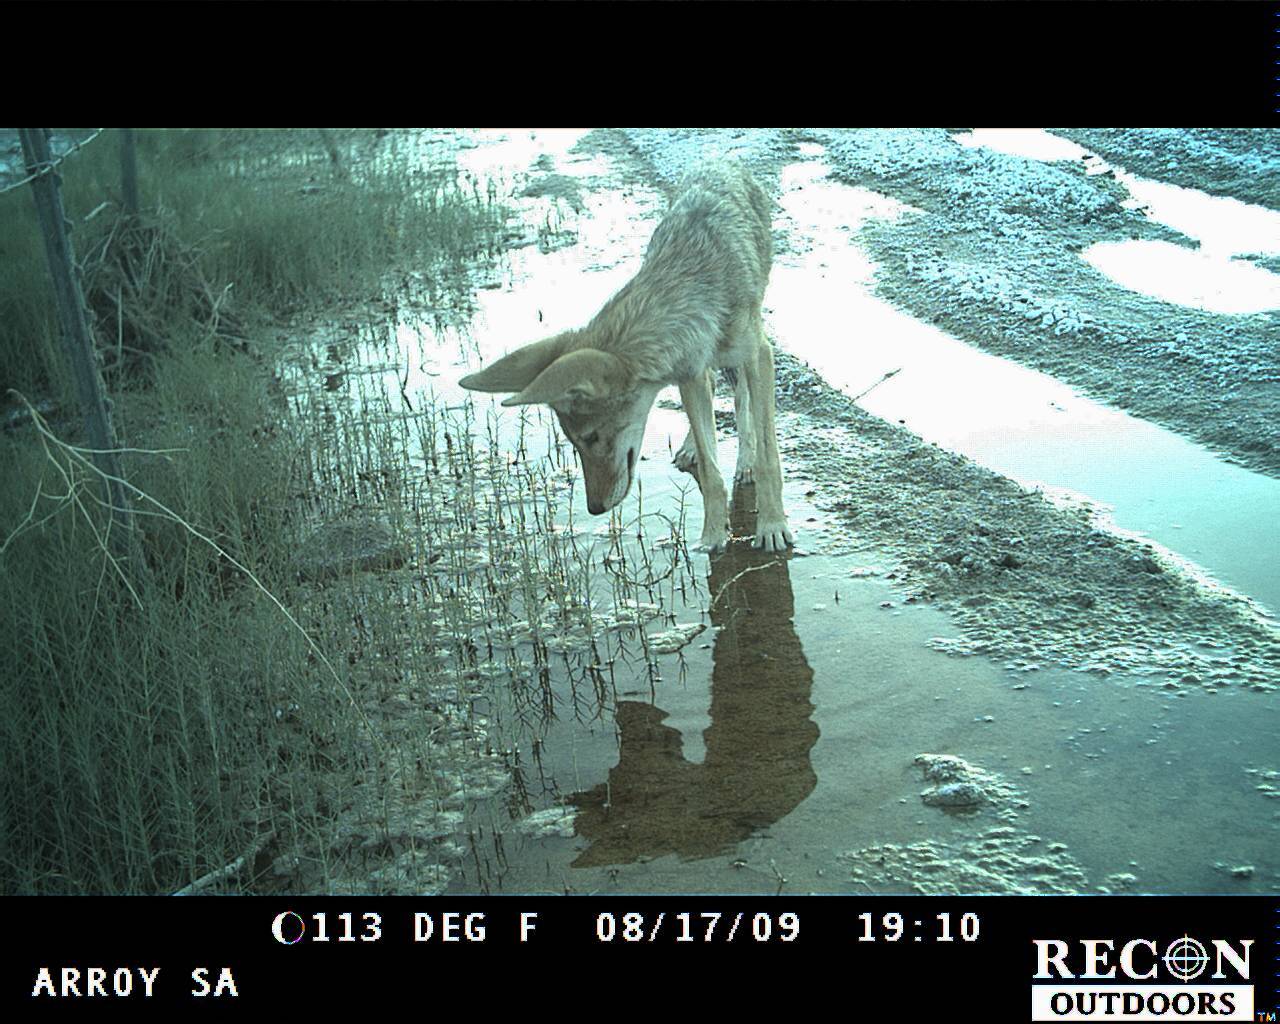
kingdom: Animalia
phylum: Chordata
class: Mammalia
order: Carnivora
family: Canidae
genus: Canis
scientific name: Canis latrans
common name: Coyote
